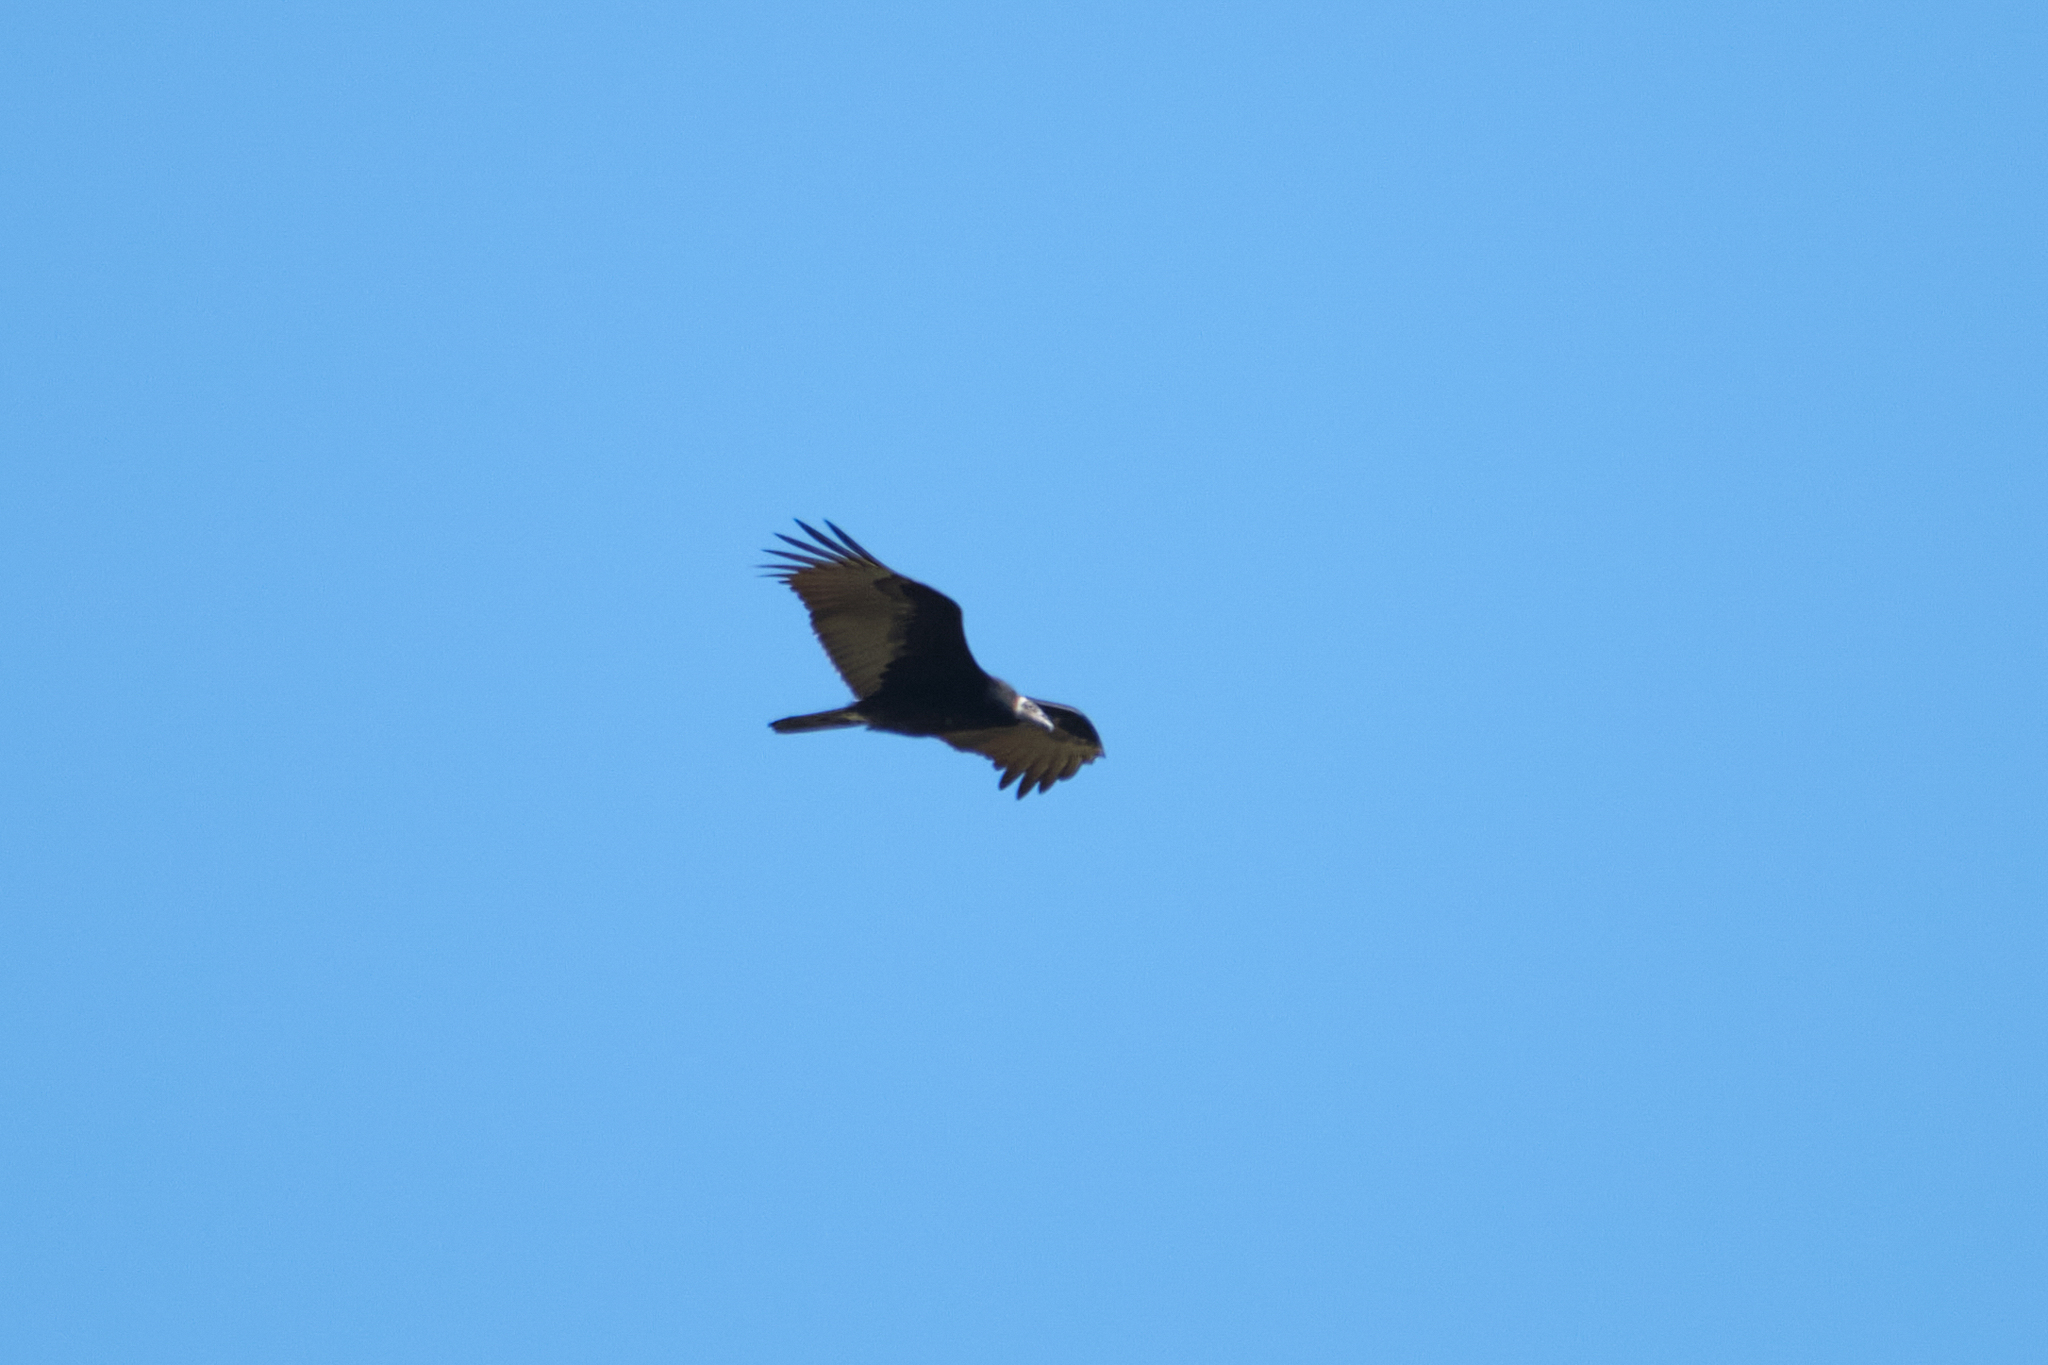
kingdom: Animalia
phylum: Chordata
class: Aves
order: Accipitriformes
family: Cathartidae
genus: Cathartes
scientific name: Cathartes aura
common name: Turkey vulture
